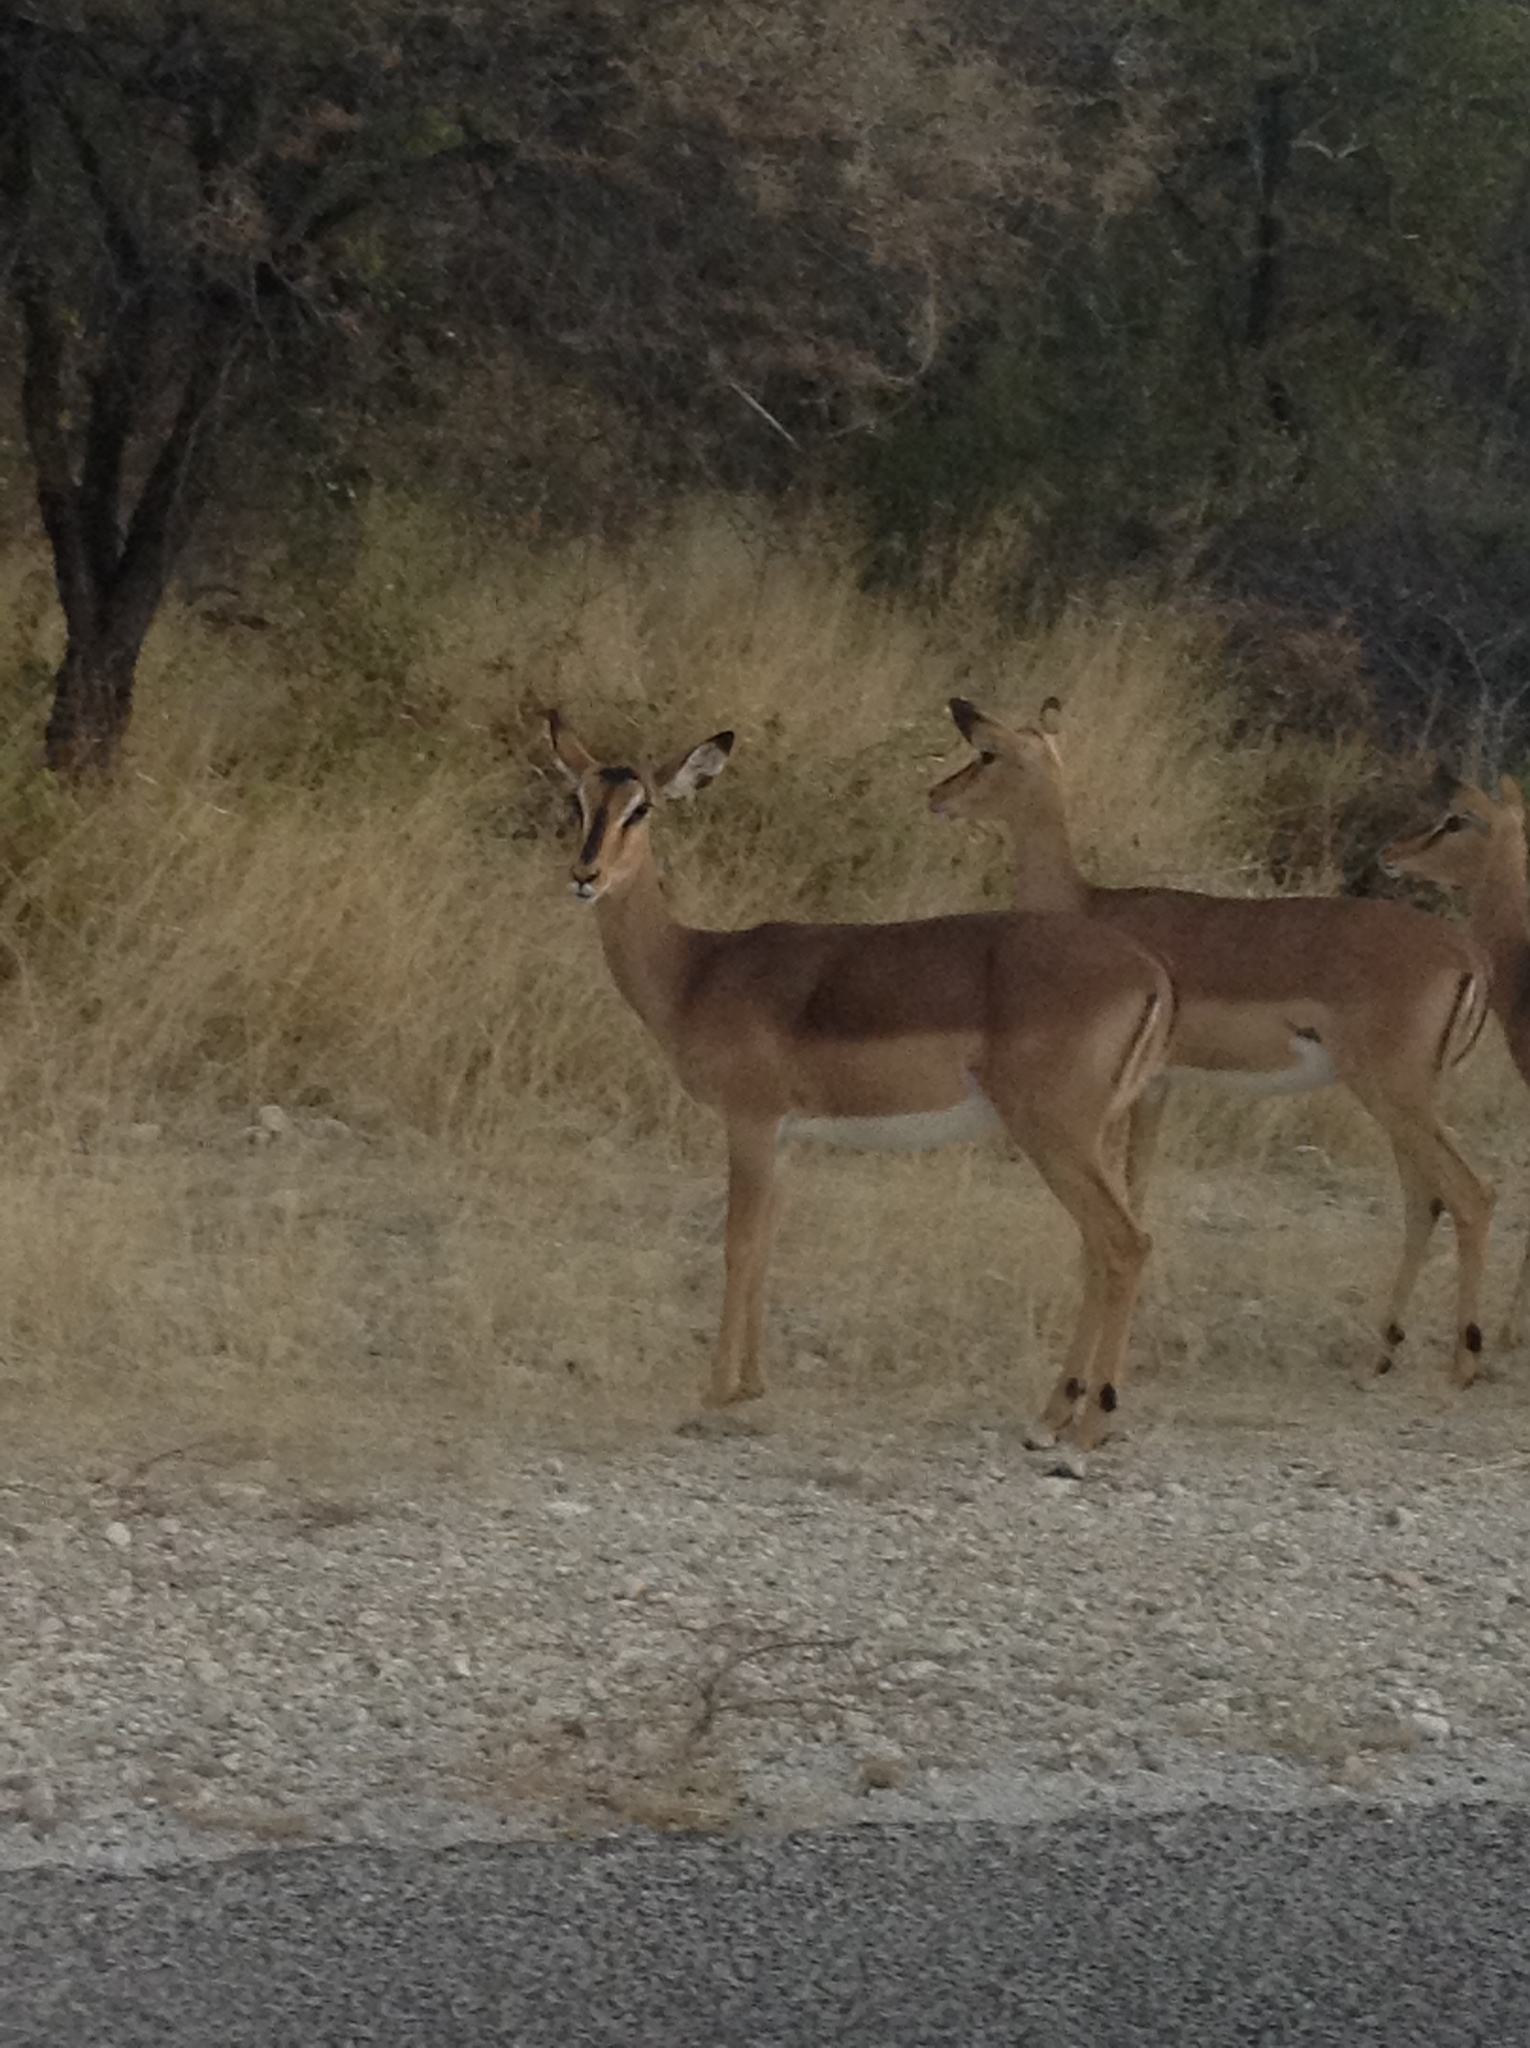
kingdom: Animalia
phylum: Chordata
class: Mammalia
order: Artiodactyla
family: Bovidae
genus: Aepyceros
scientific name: Aepyceros melampus
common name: Impala
